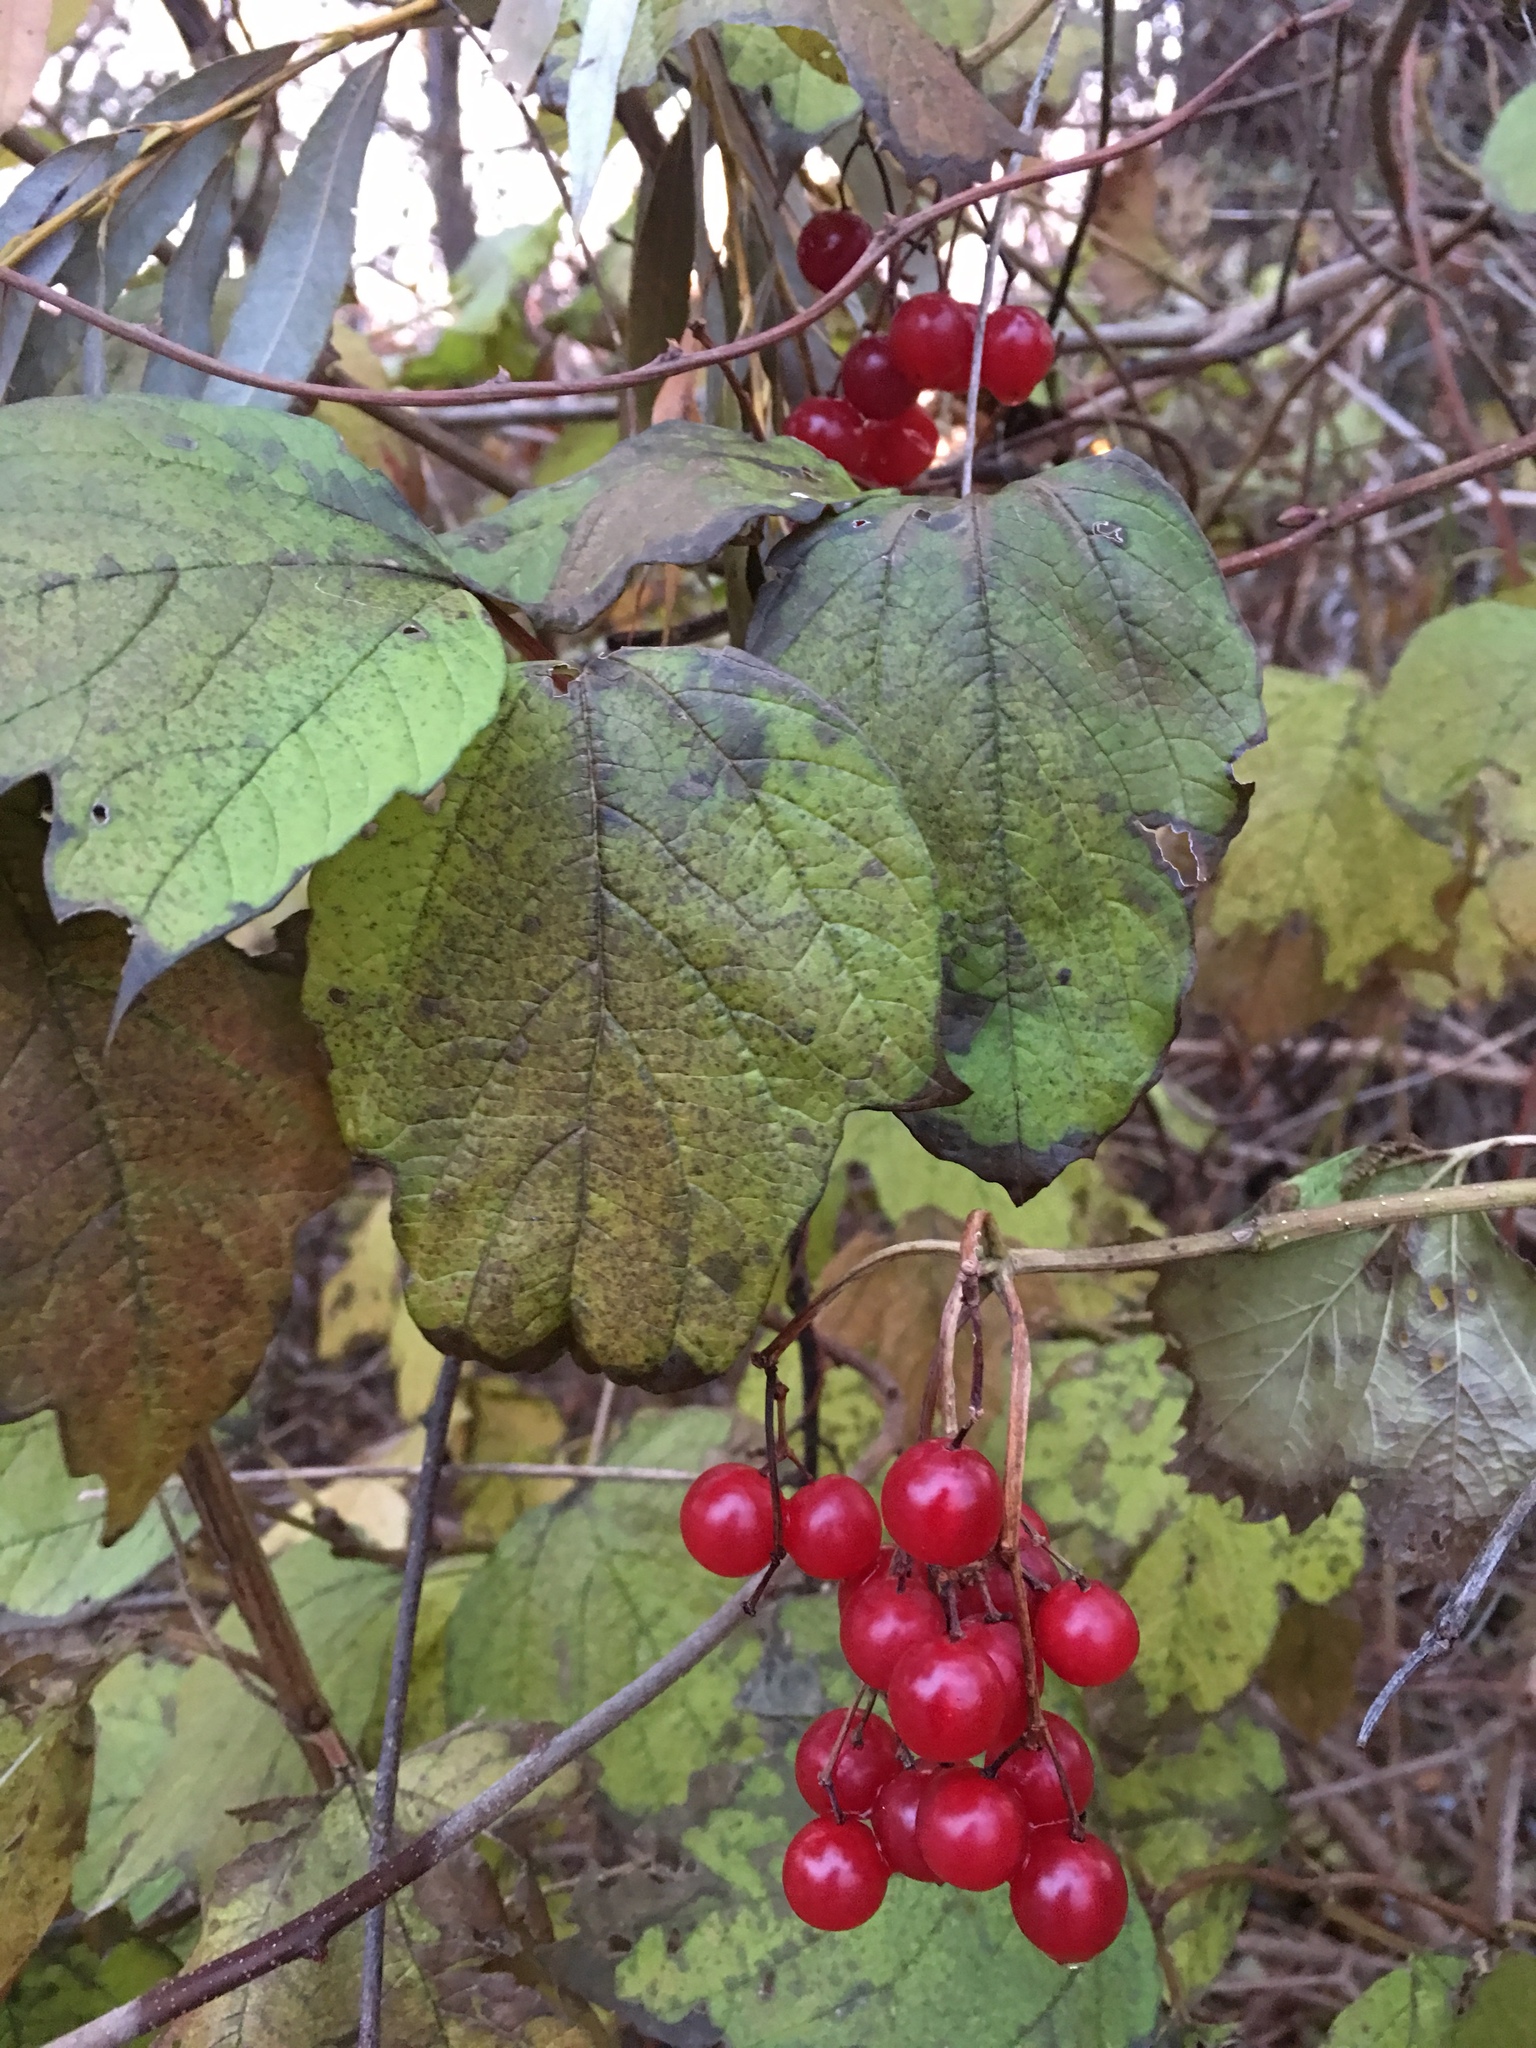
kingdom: Plantae
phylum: Tracheophyta
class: Magnoliopsida
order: Dipsacales
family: Viburnaceae
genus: Viburnum
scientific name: Viburnum opulus
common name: Guelder-rose
